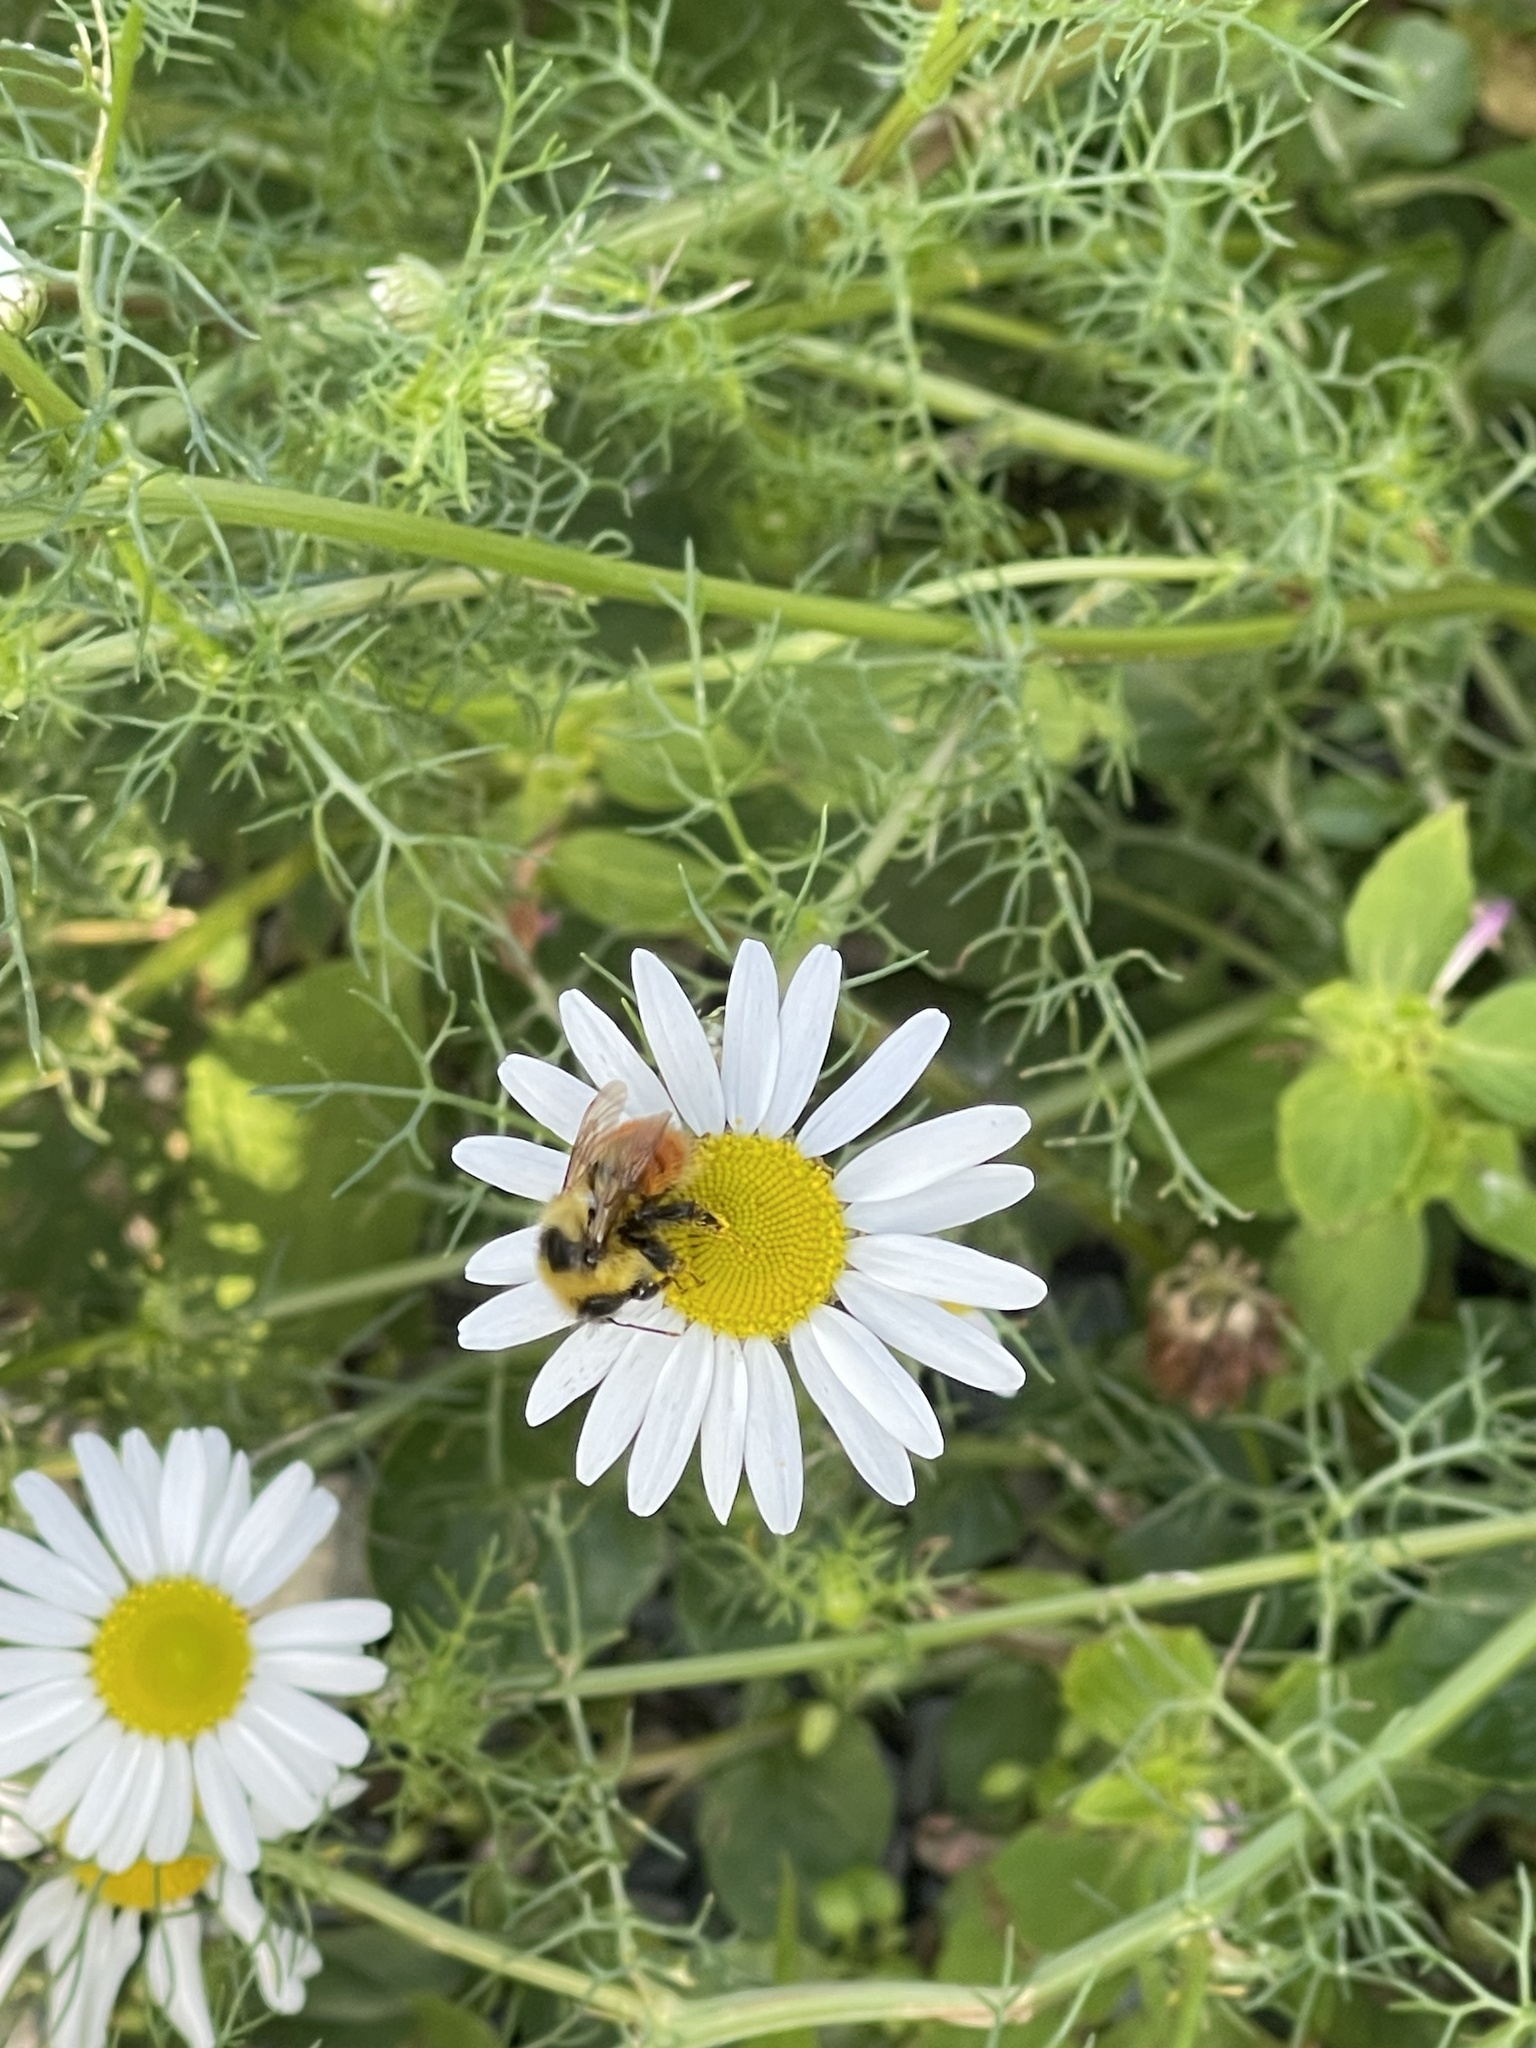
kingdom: Animalia
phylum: Arthropoda
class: Insecta
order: Hymenoptera
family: Apidae
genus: Bombus
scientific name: Bombus rufocinctus
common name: Red-belted bumble bee
